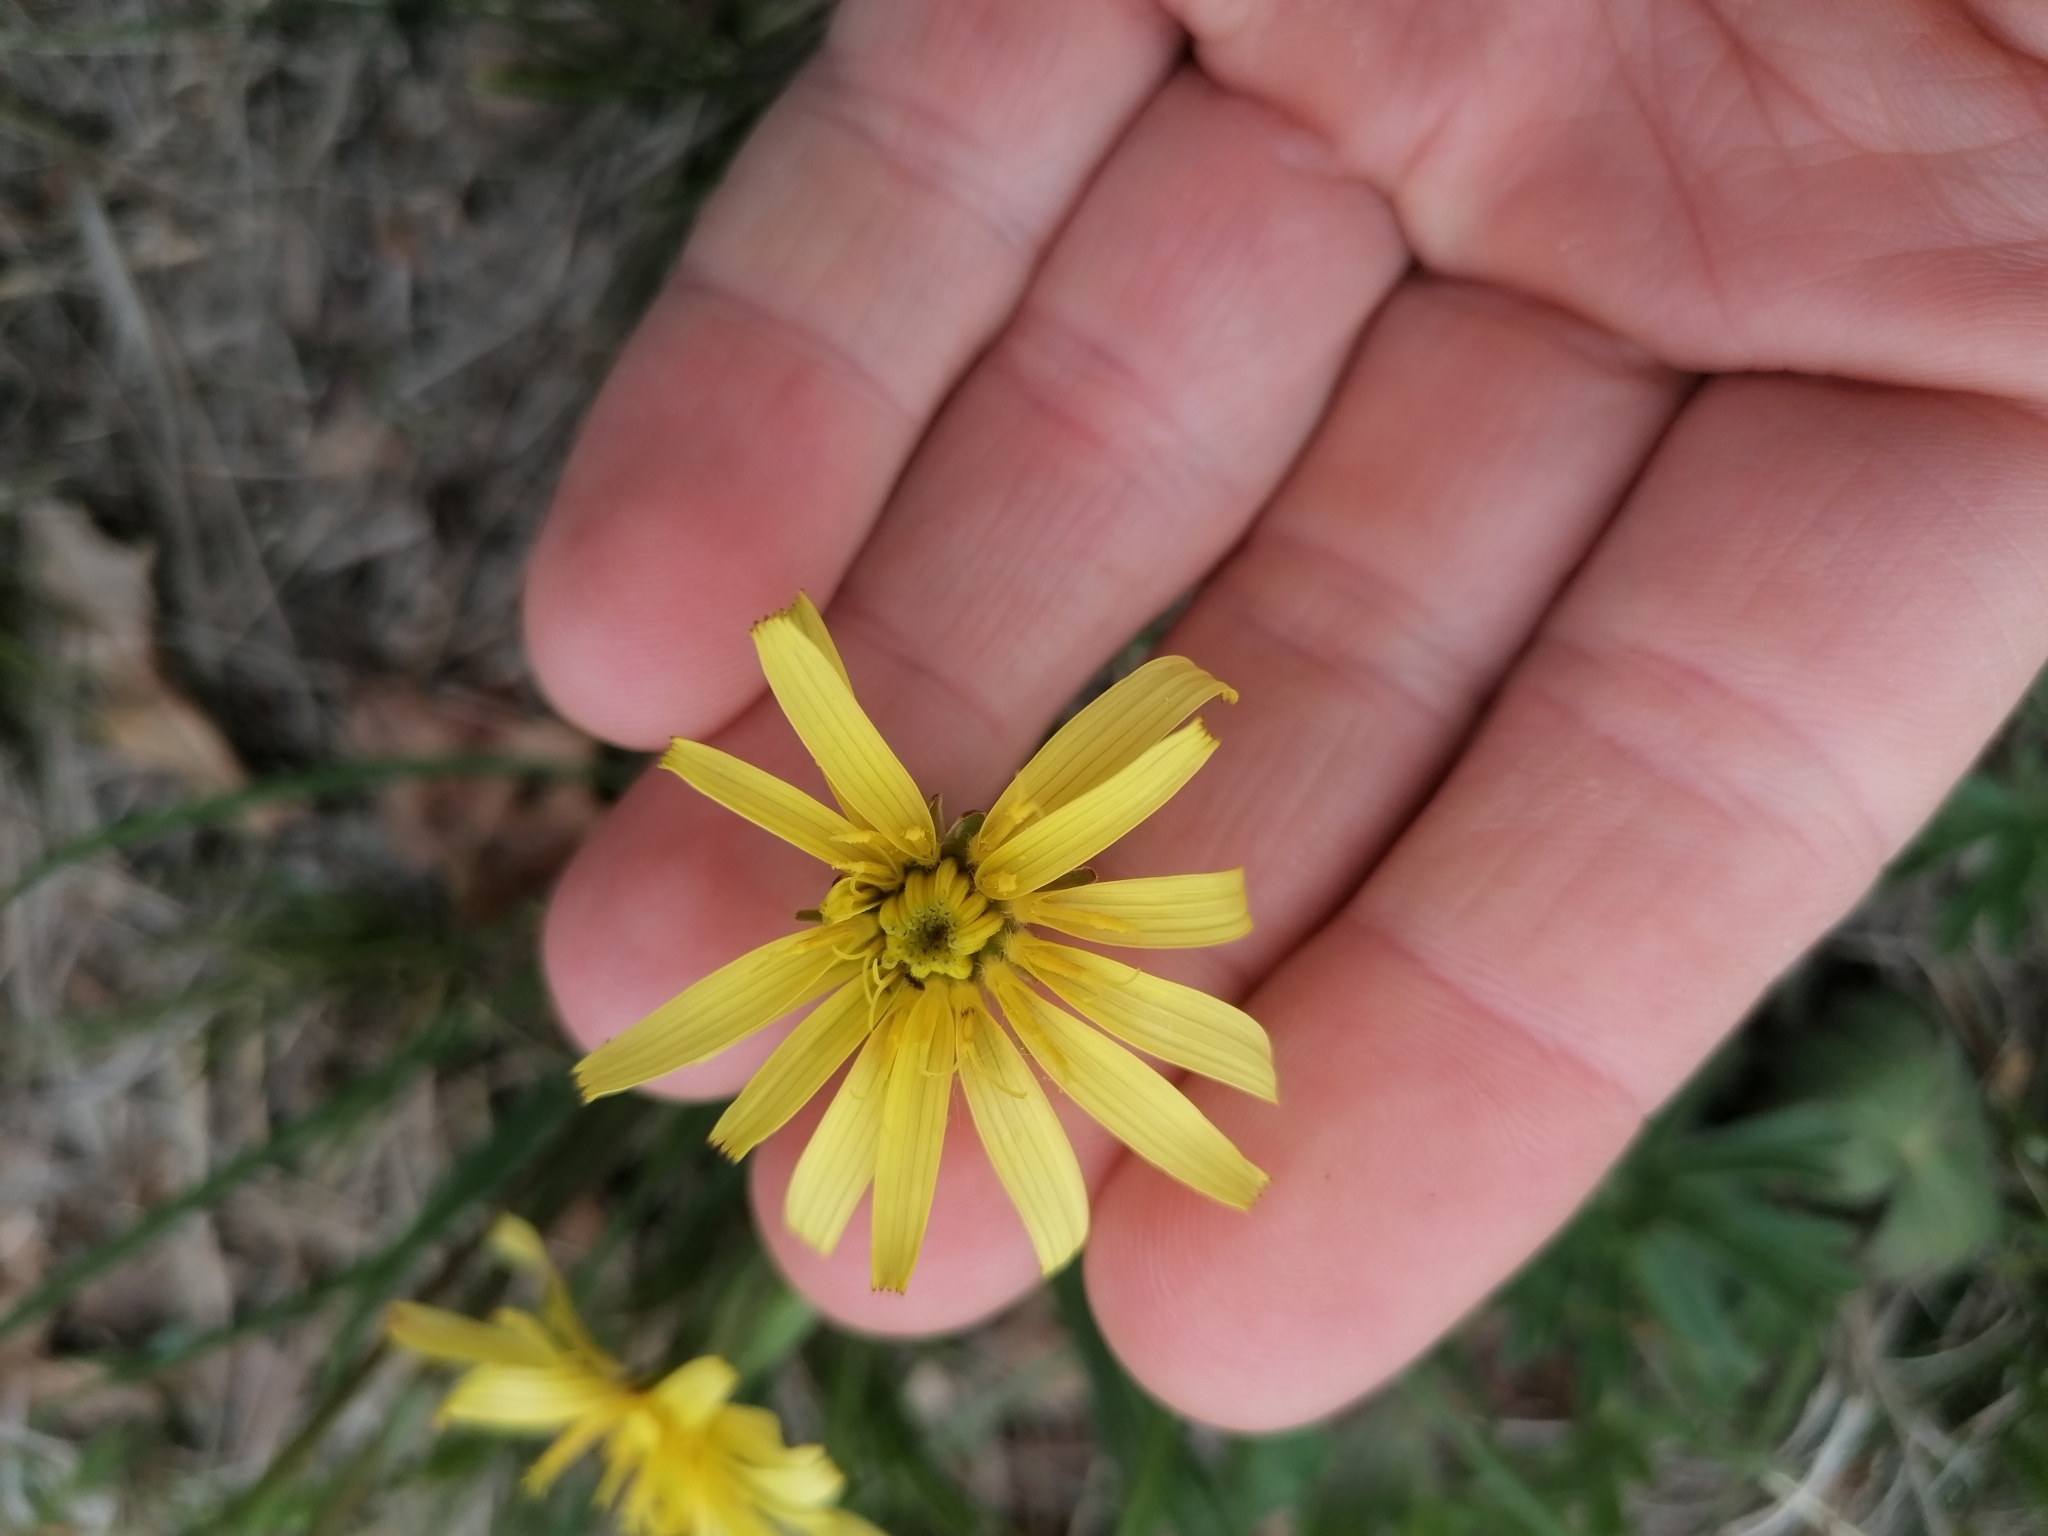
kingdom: Plantae
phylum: Tracheophyta
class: Magnoliopsida
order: Asterales
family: Asteraceae
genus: Takhtajaniantha
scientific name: Takhtajaniantha austriaca
